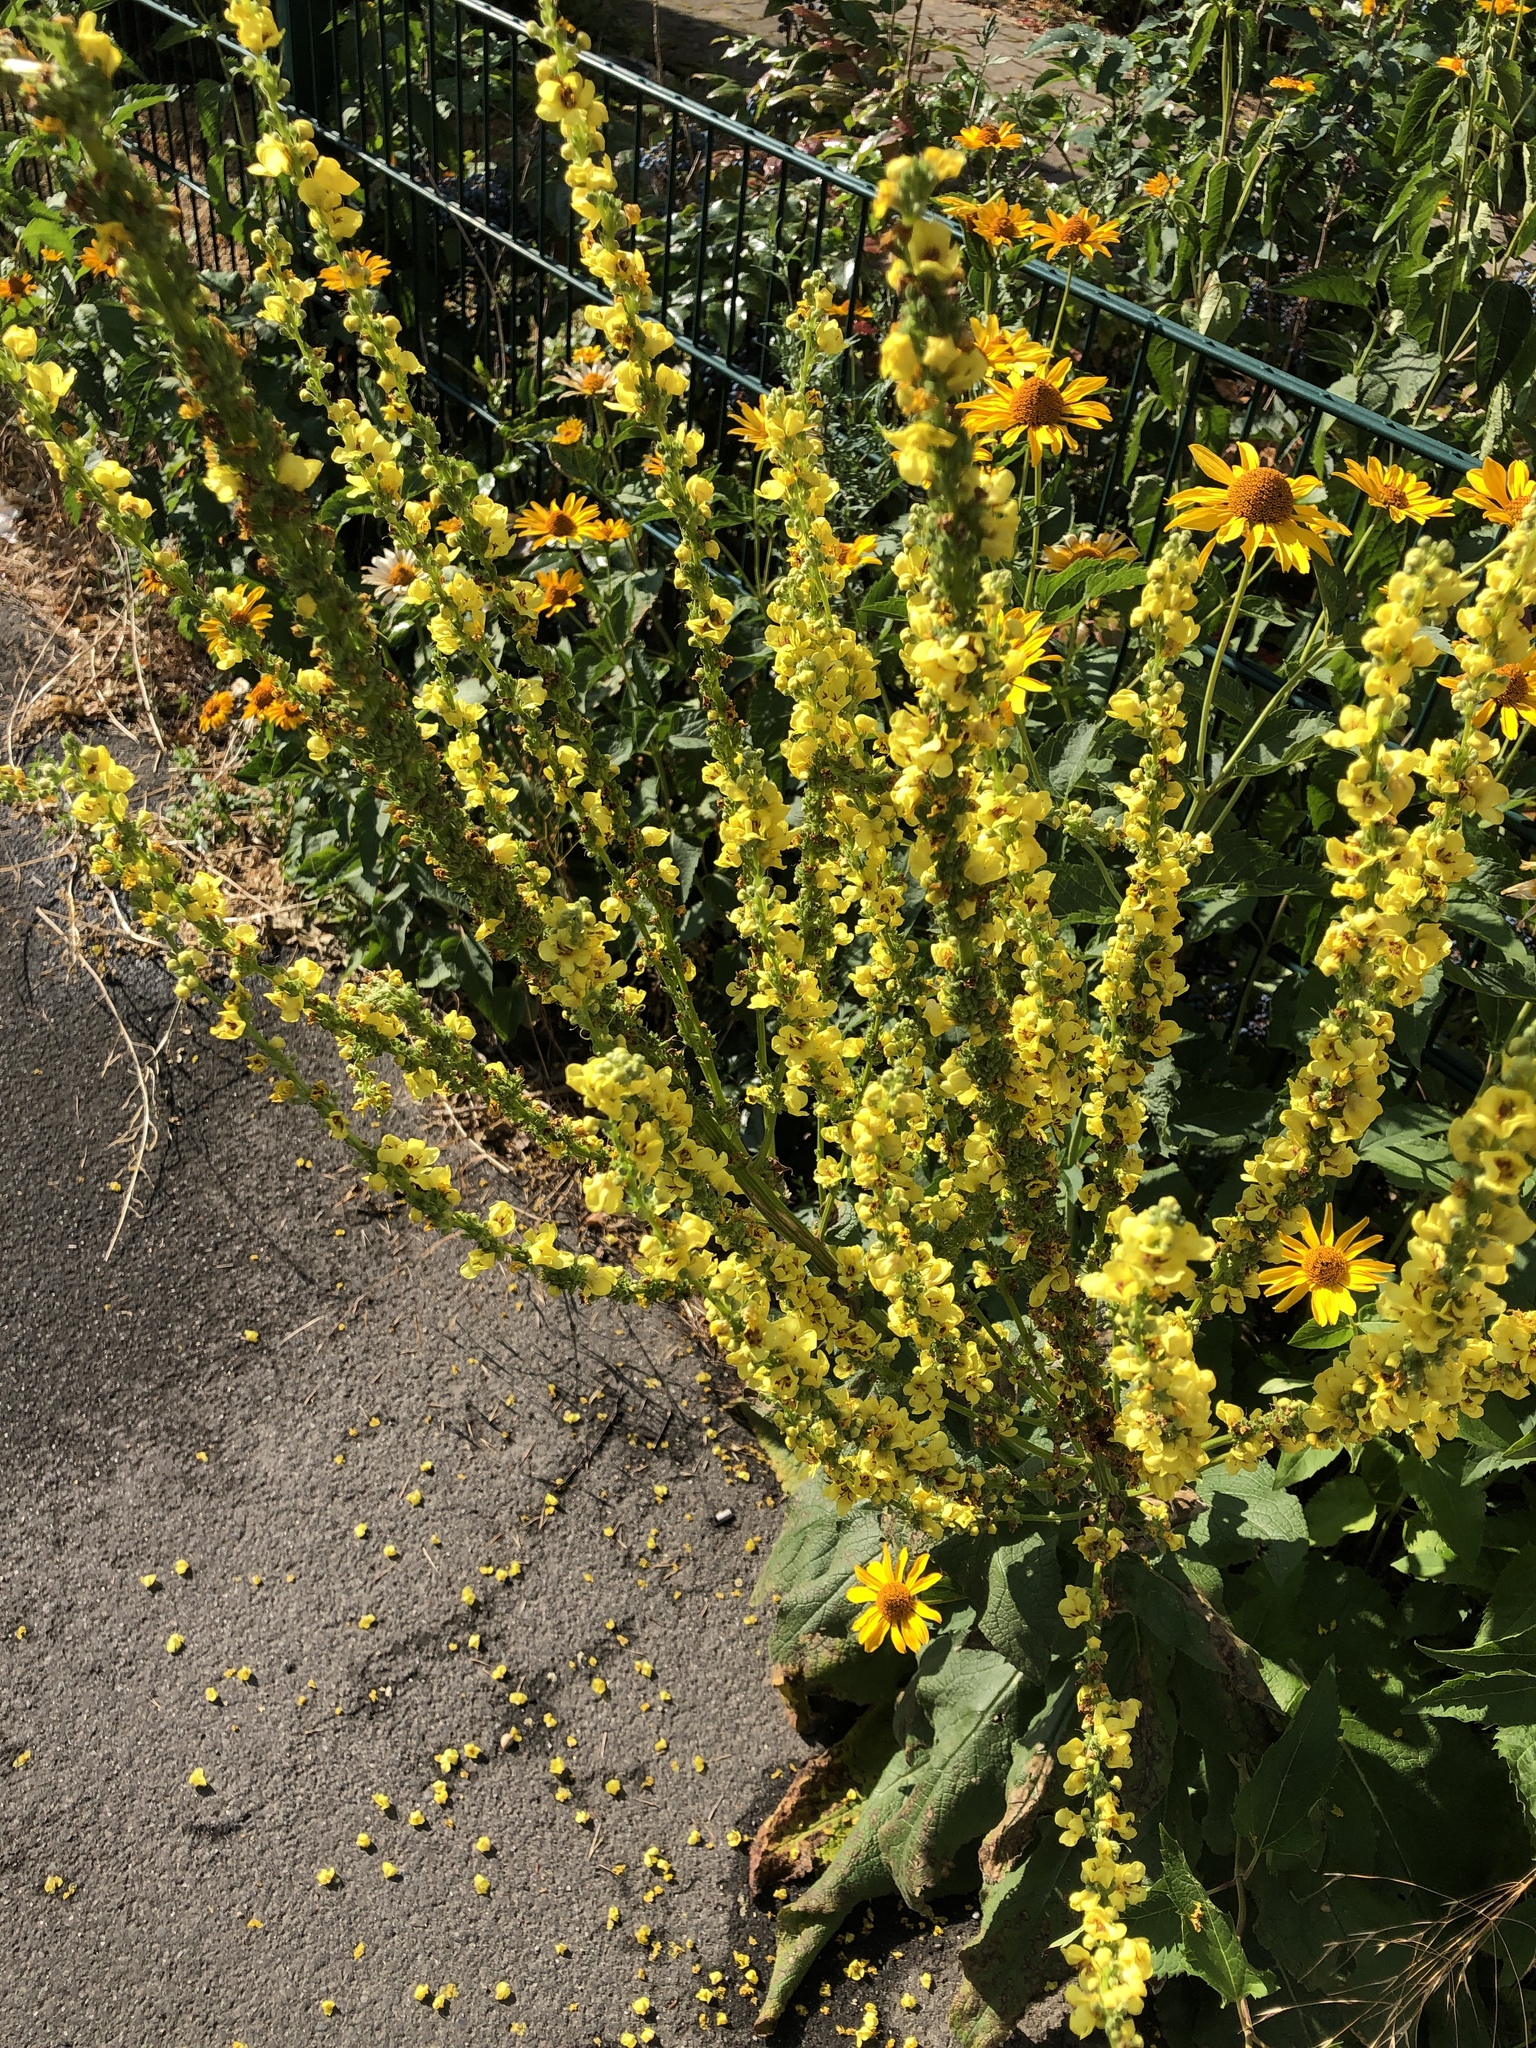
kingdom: Plantae
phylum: Tracheophyta
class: Magnoliopsida
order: Lamiales
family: Scrophulariaceae
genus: Verbascum
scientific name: Verbascum nigrum
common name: Dark mullein
